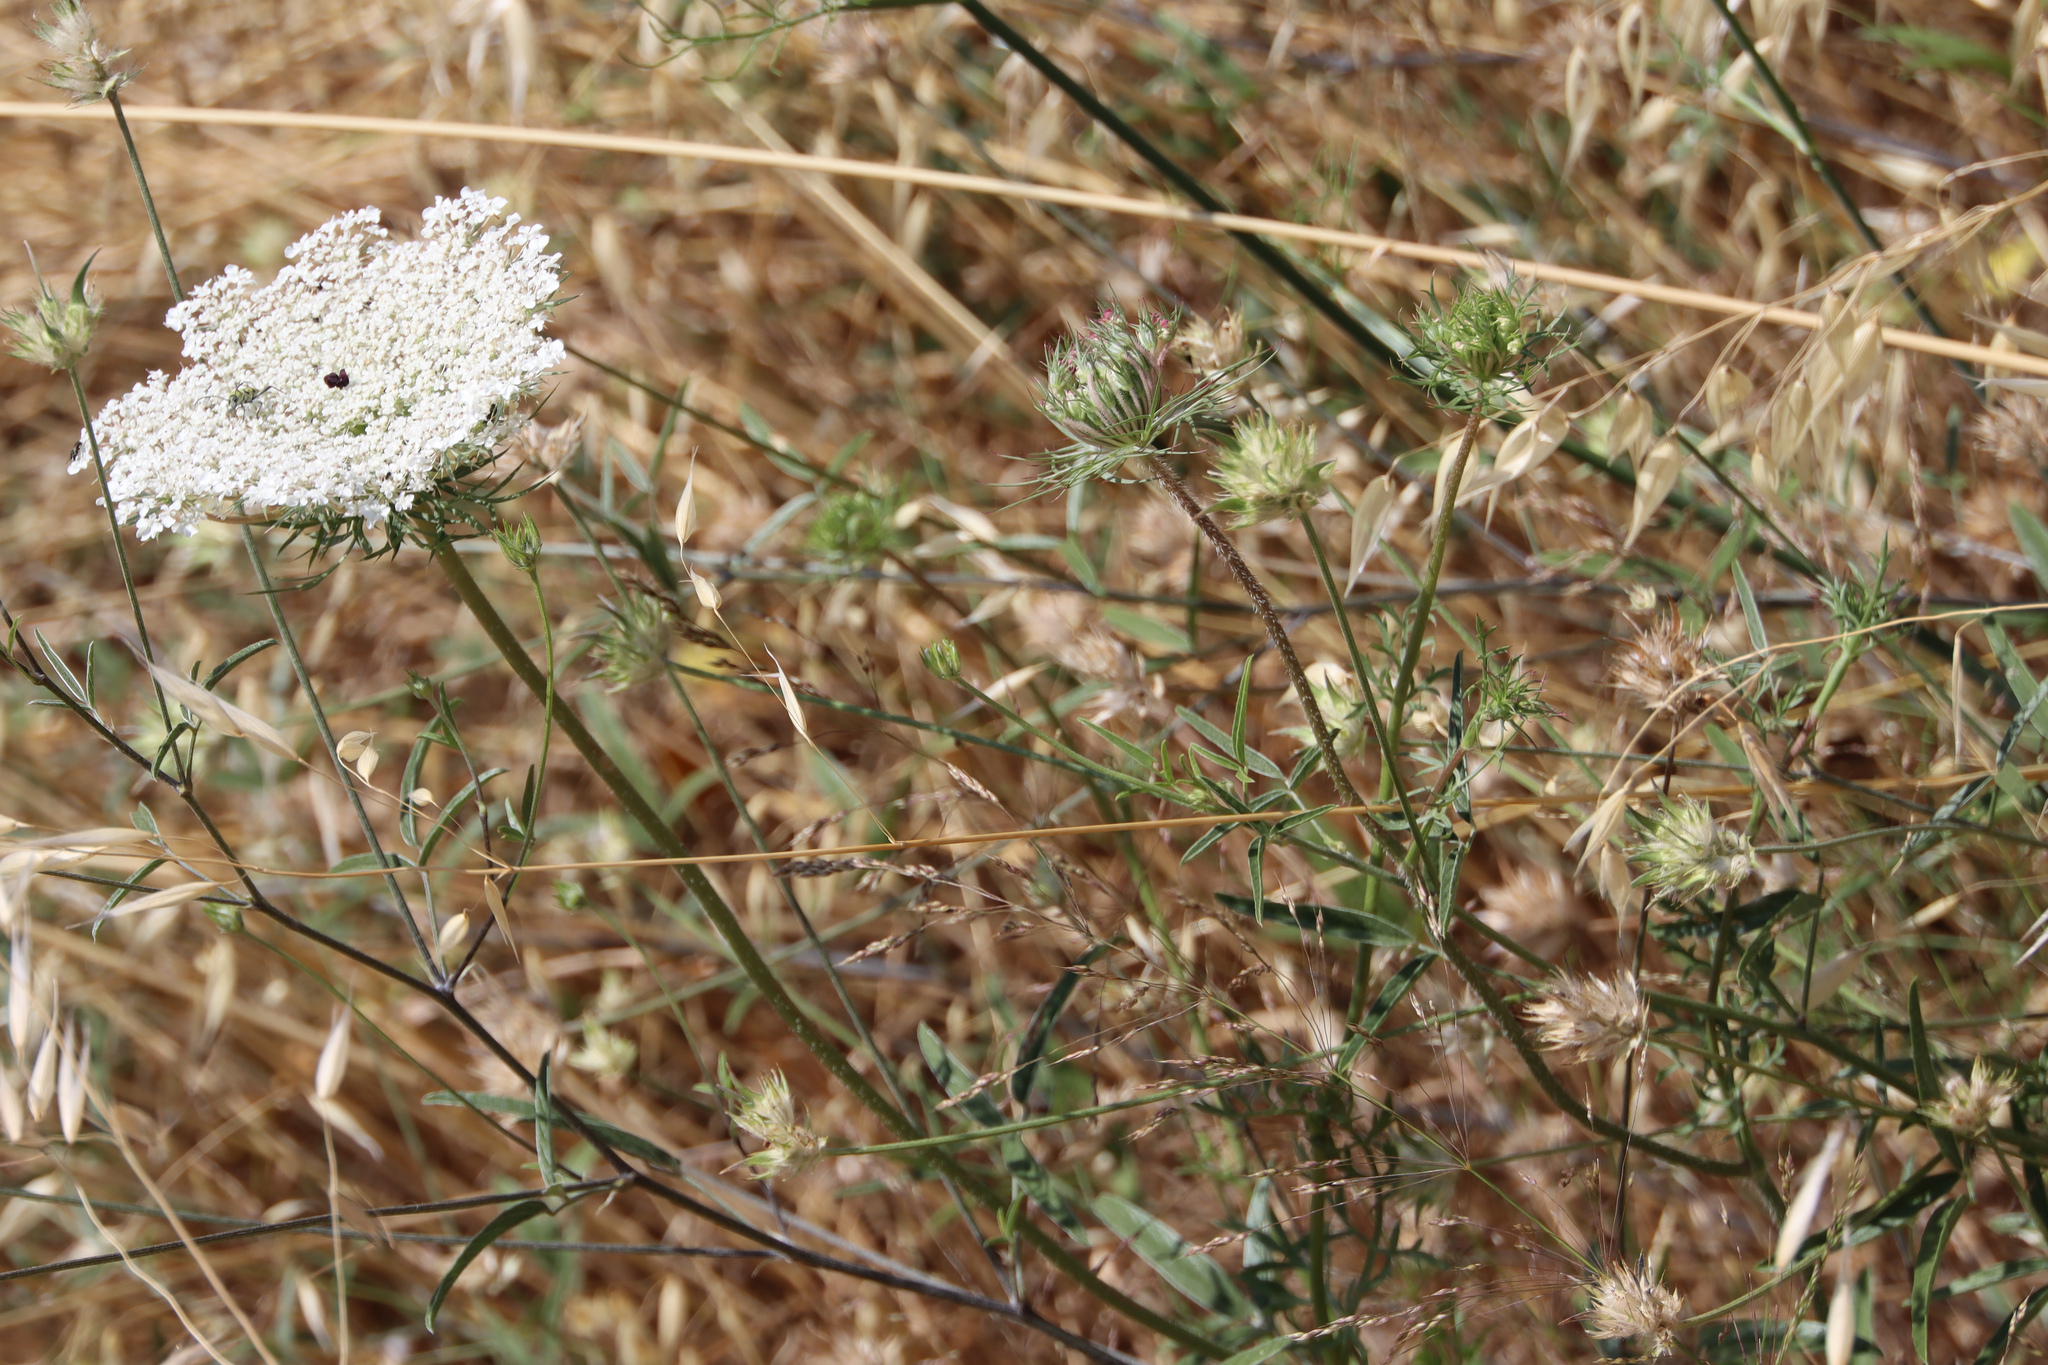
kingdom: Plantae
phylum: Tracheophyta
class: Magnoliopsida
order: Apiales
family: Apiaceae
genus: Daucus
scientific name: Daucus carota
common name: Wild carrot
